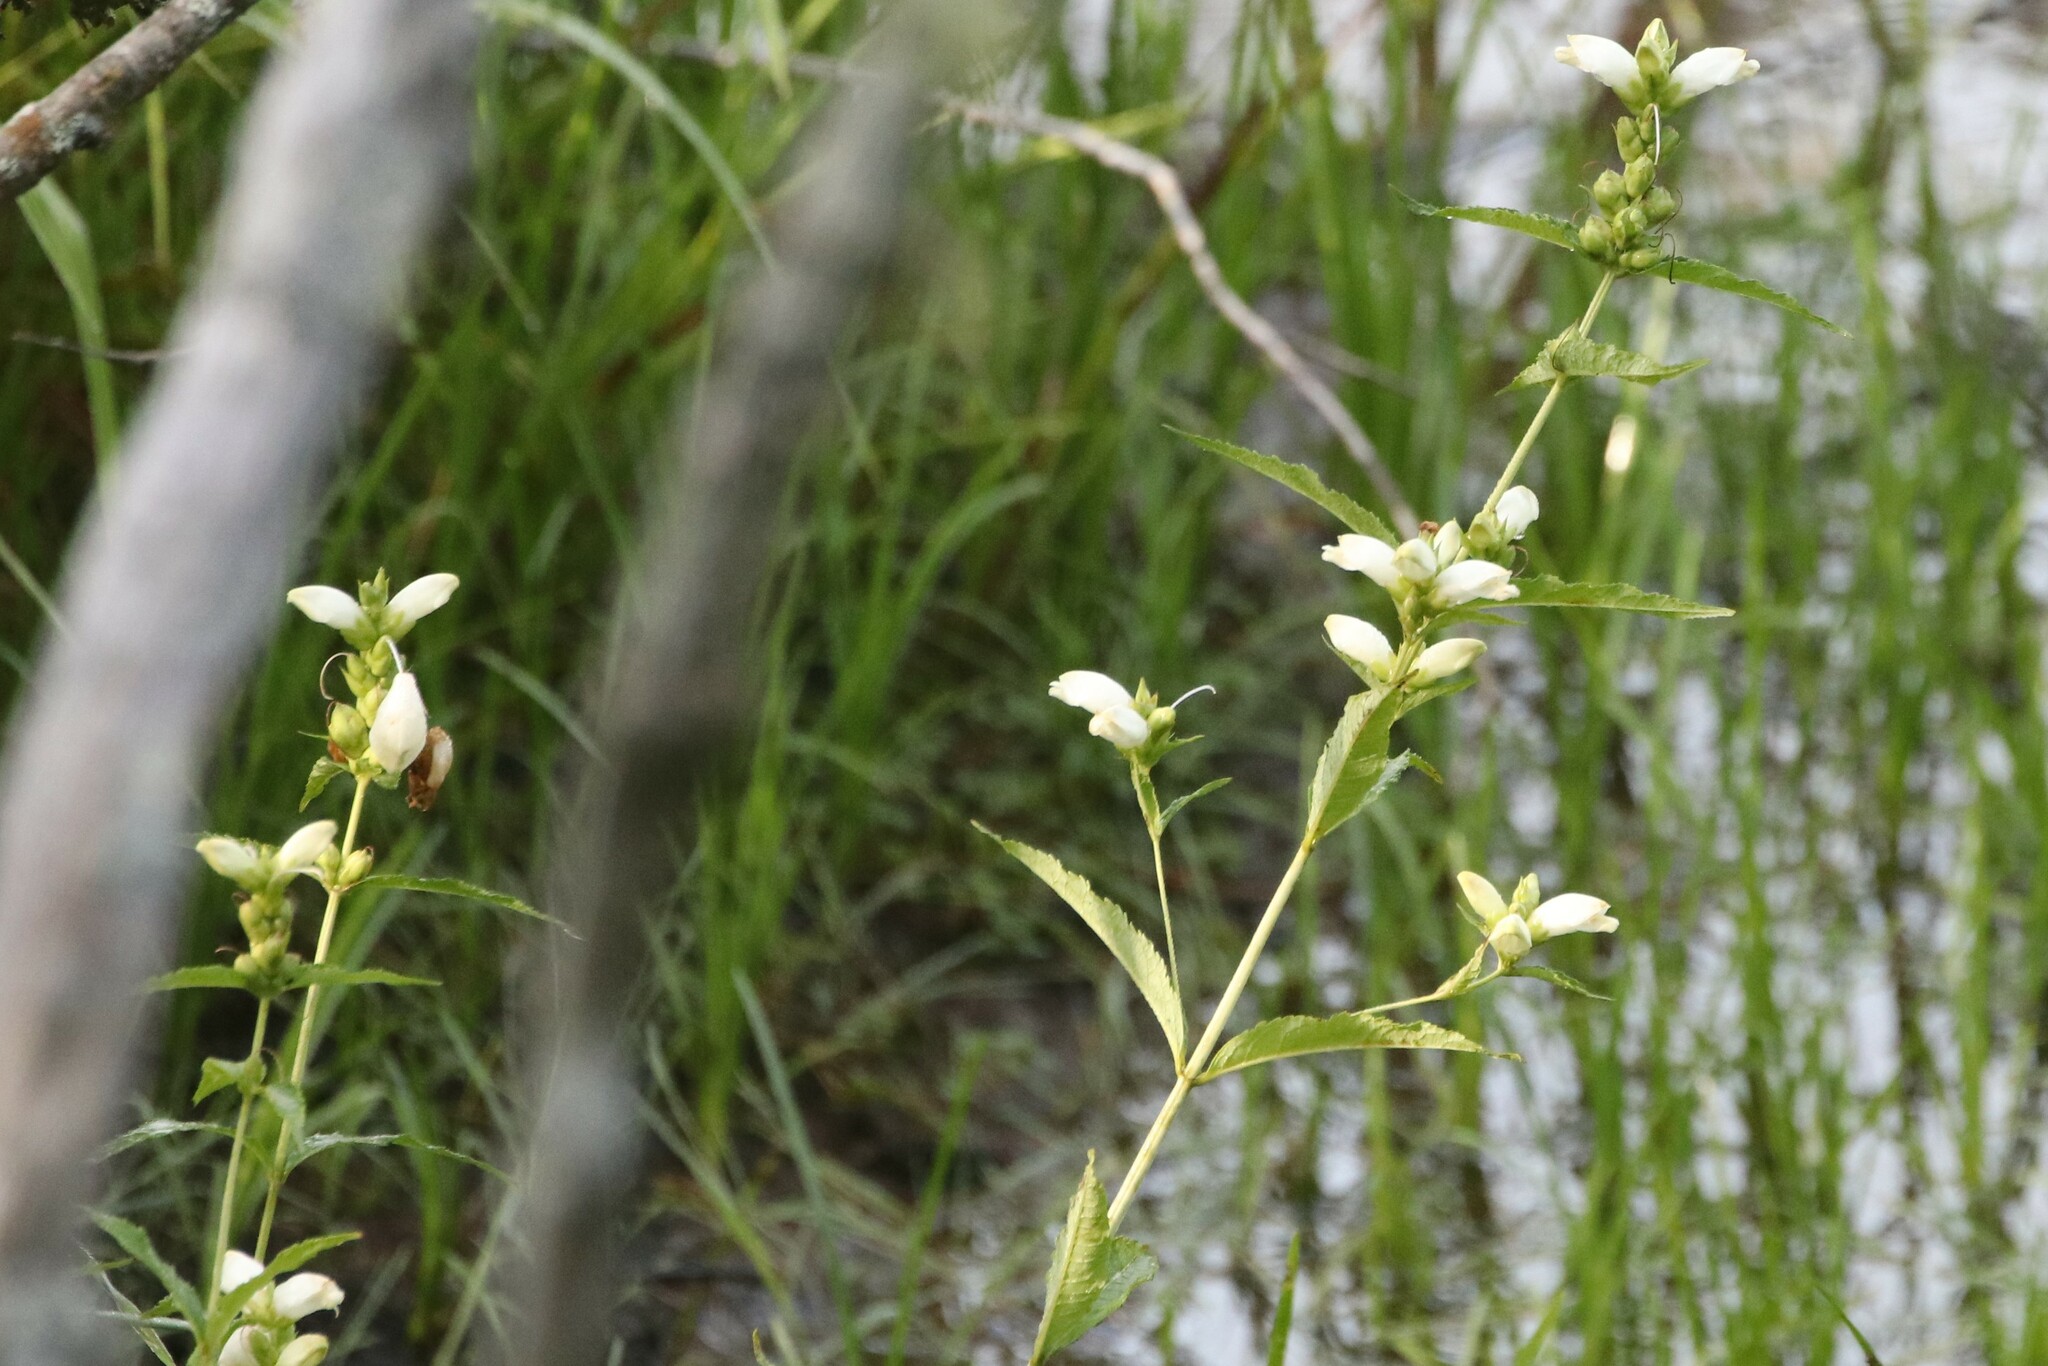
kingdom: Plantae
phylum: Tracheophyta
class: Magnoliopsida
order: Lamiales
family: Plantaginaceae
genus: Chelone
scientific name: Chelone glabra
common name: Snakehead
